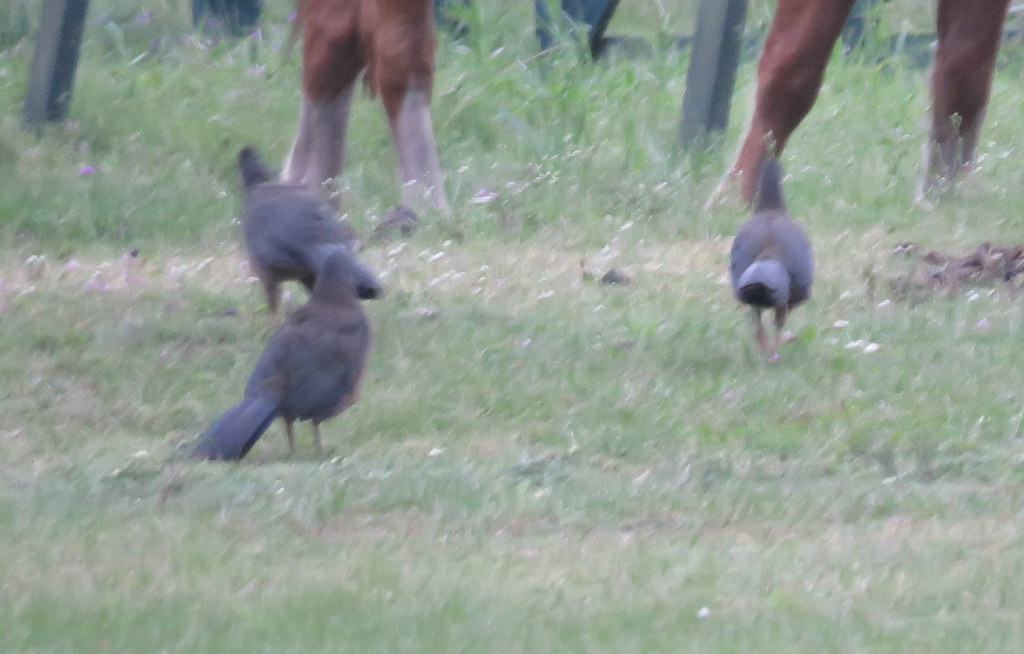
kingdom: Animalia
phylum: Chordata
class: Aves
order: Galliformes
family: Cracidae
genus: Ortalis
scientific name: Ortalis canicollis
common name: Chaco chachalaca
